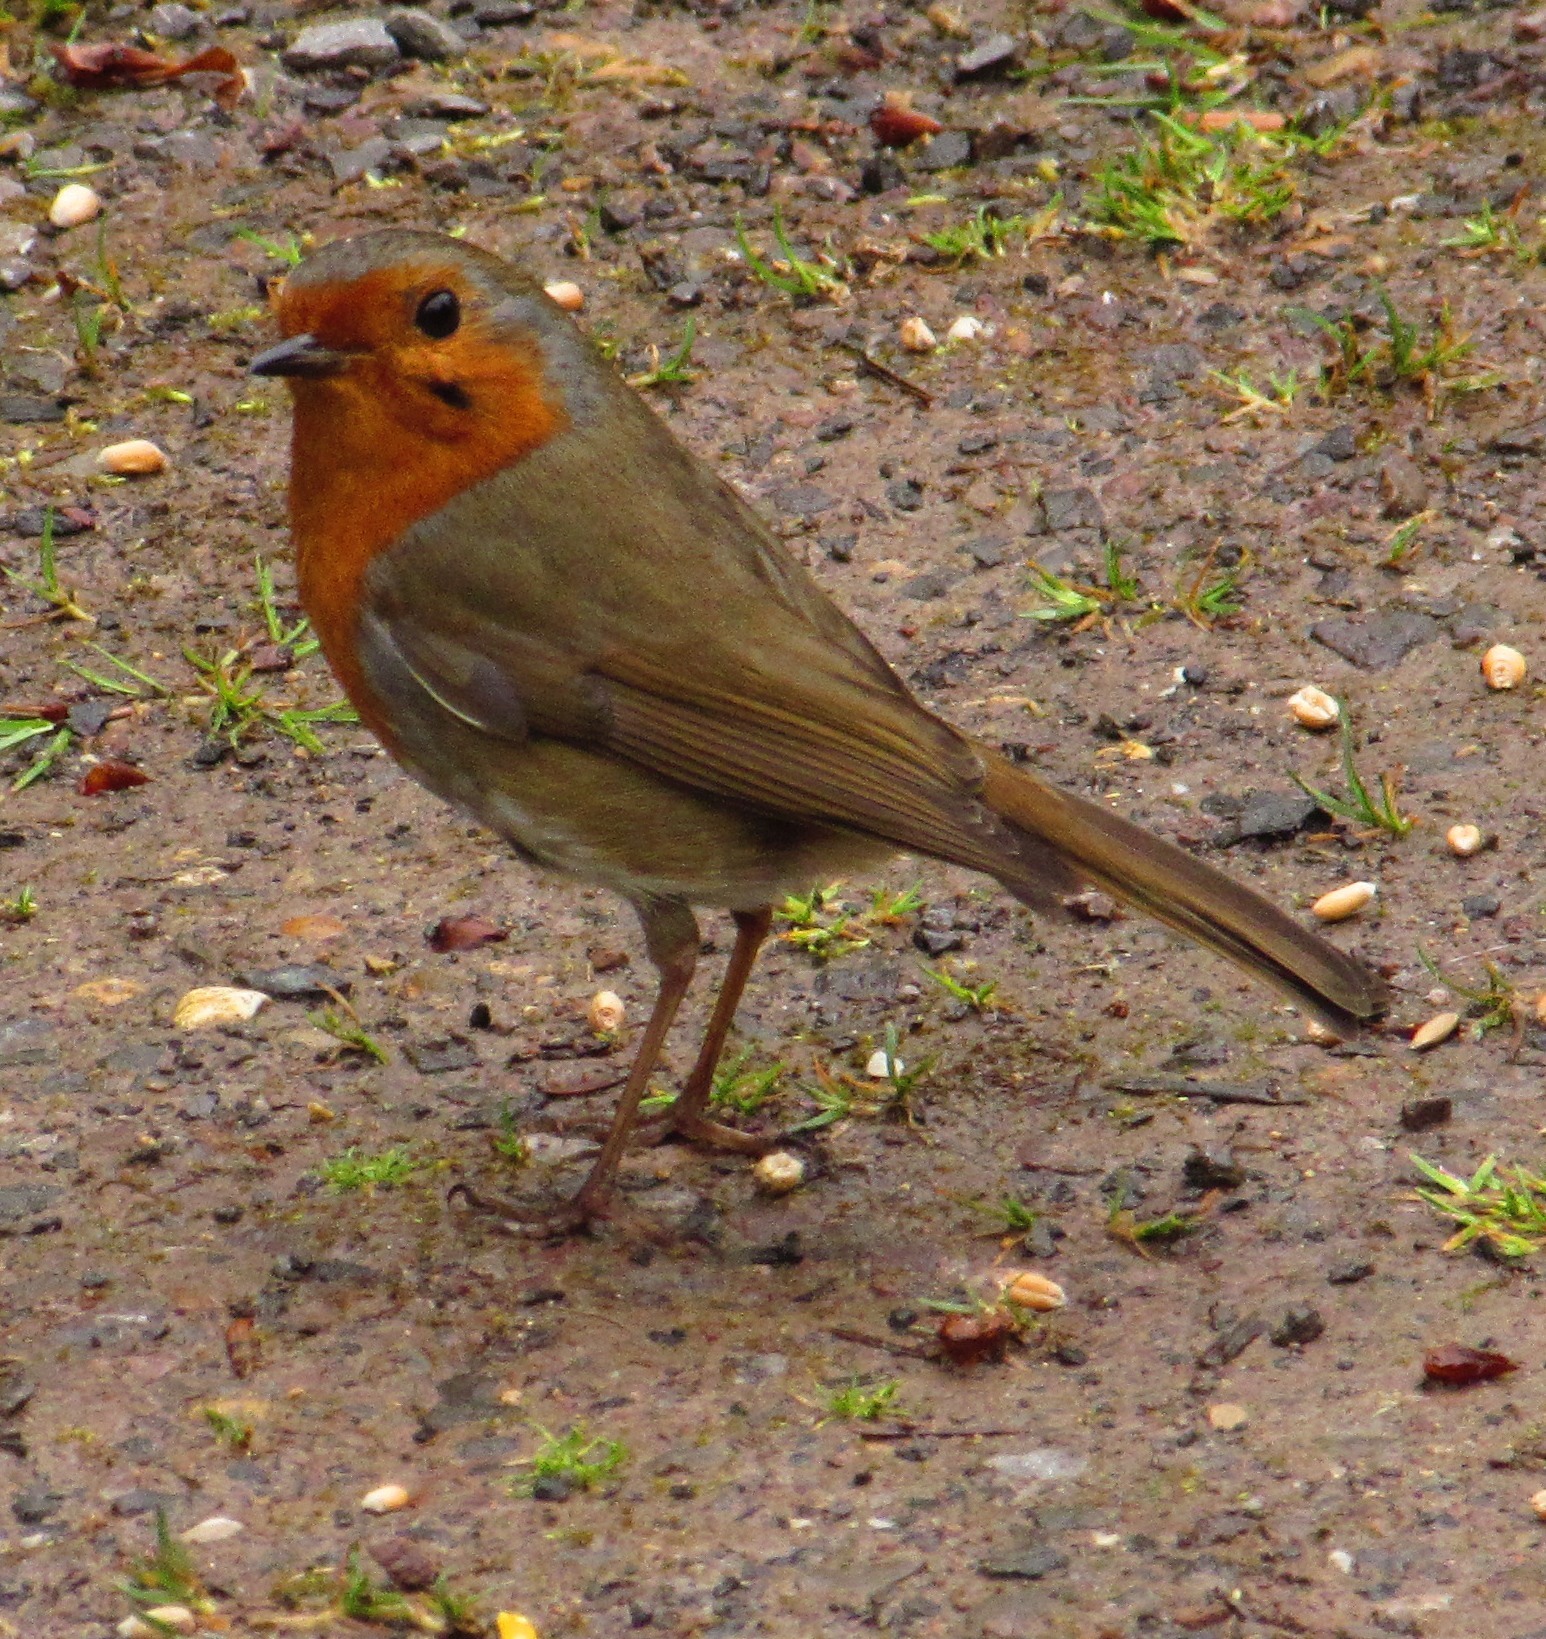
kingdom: Animalia
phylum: Chordata
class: Aves
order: Passeriformes
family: Muscicapidae
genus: Erithacus
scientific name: Erithacus rubecula
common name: European robin
